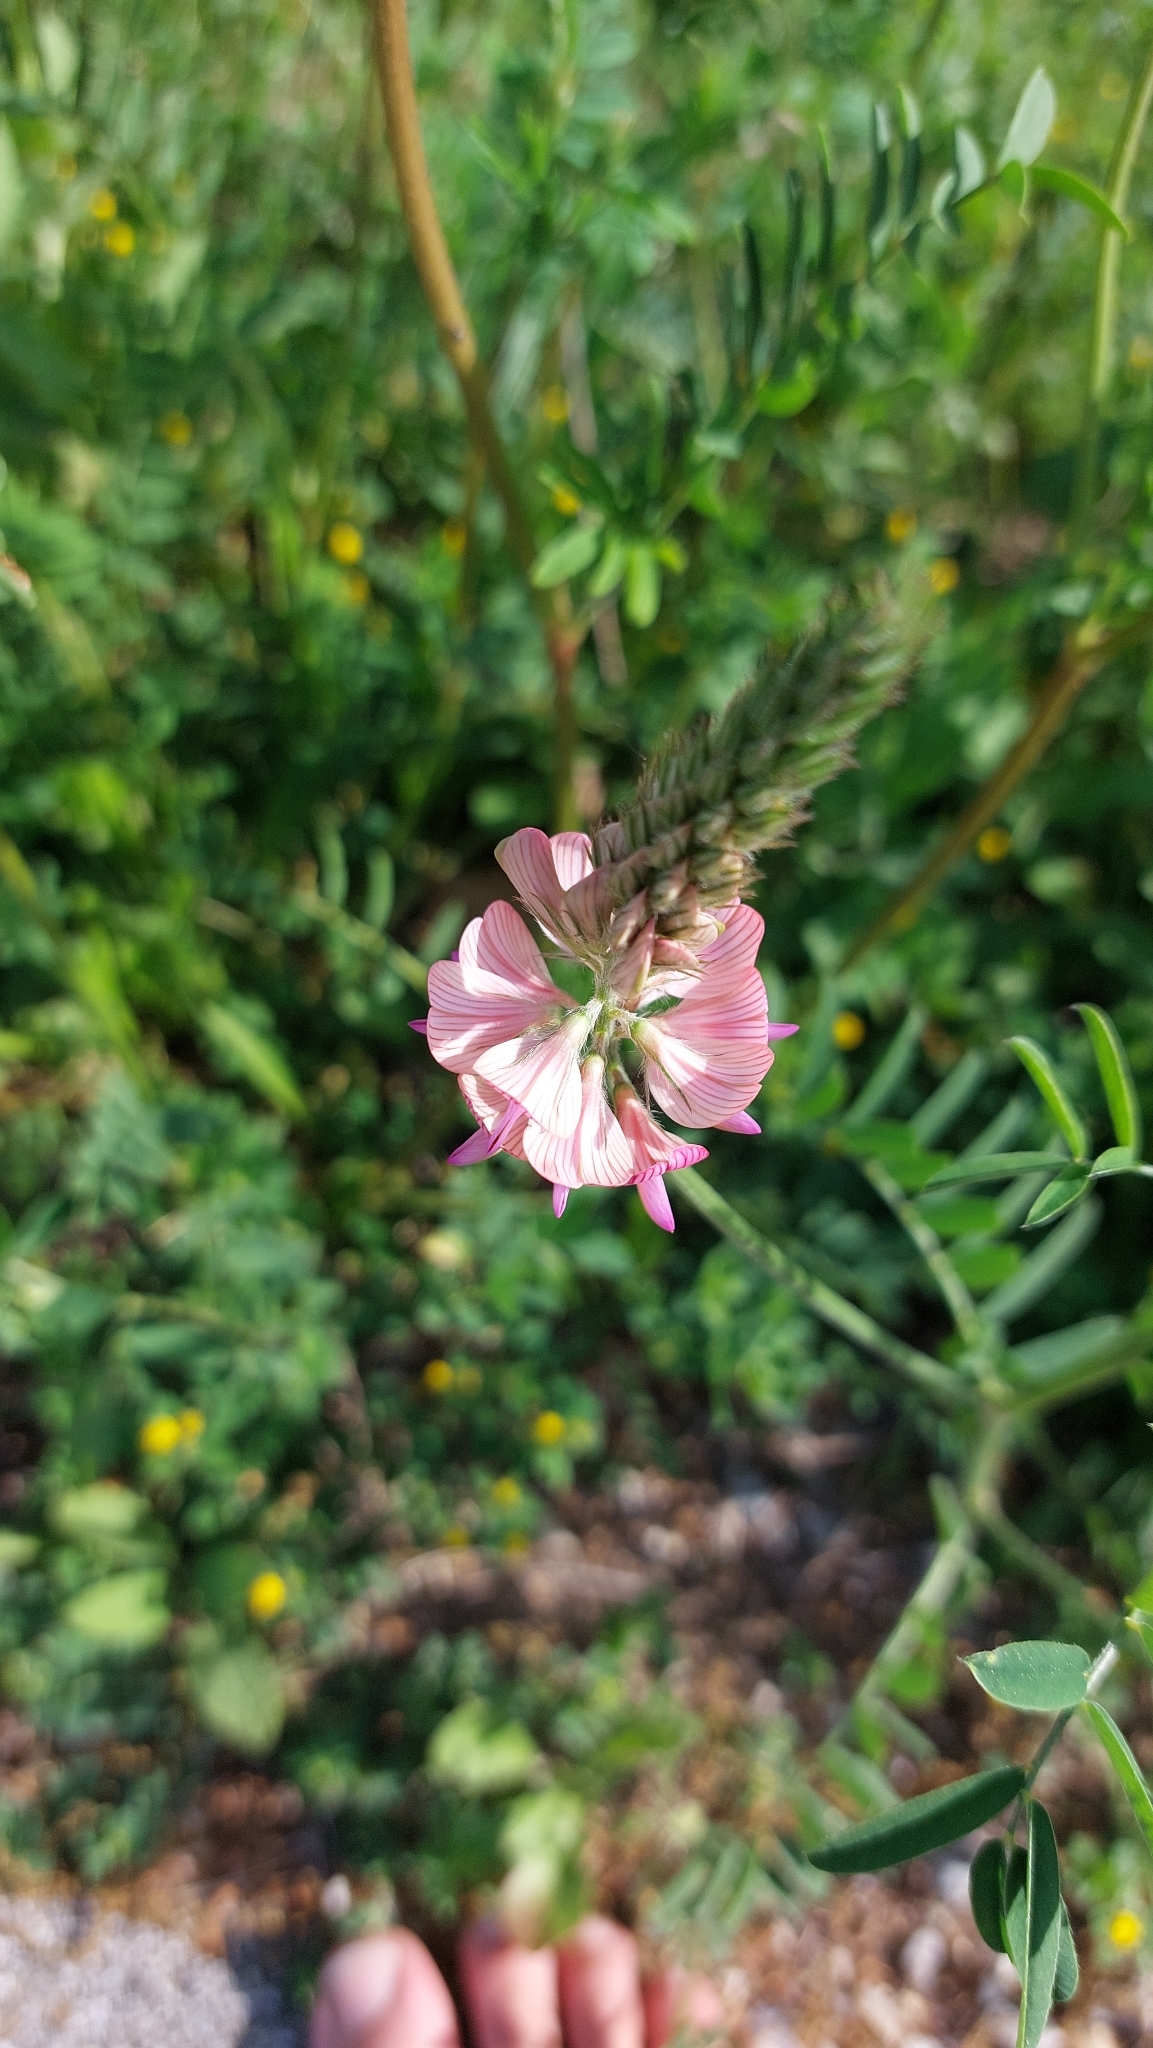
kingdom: Plantae
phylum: Tracheophyta
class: Magnoliopsida
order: Fabales
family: Fabaceae
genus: Onobrychis
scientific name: Onobrychis viciifolia
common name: Sainfoin
